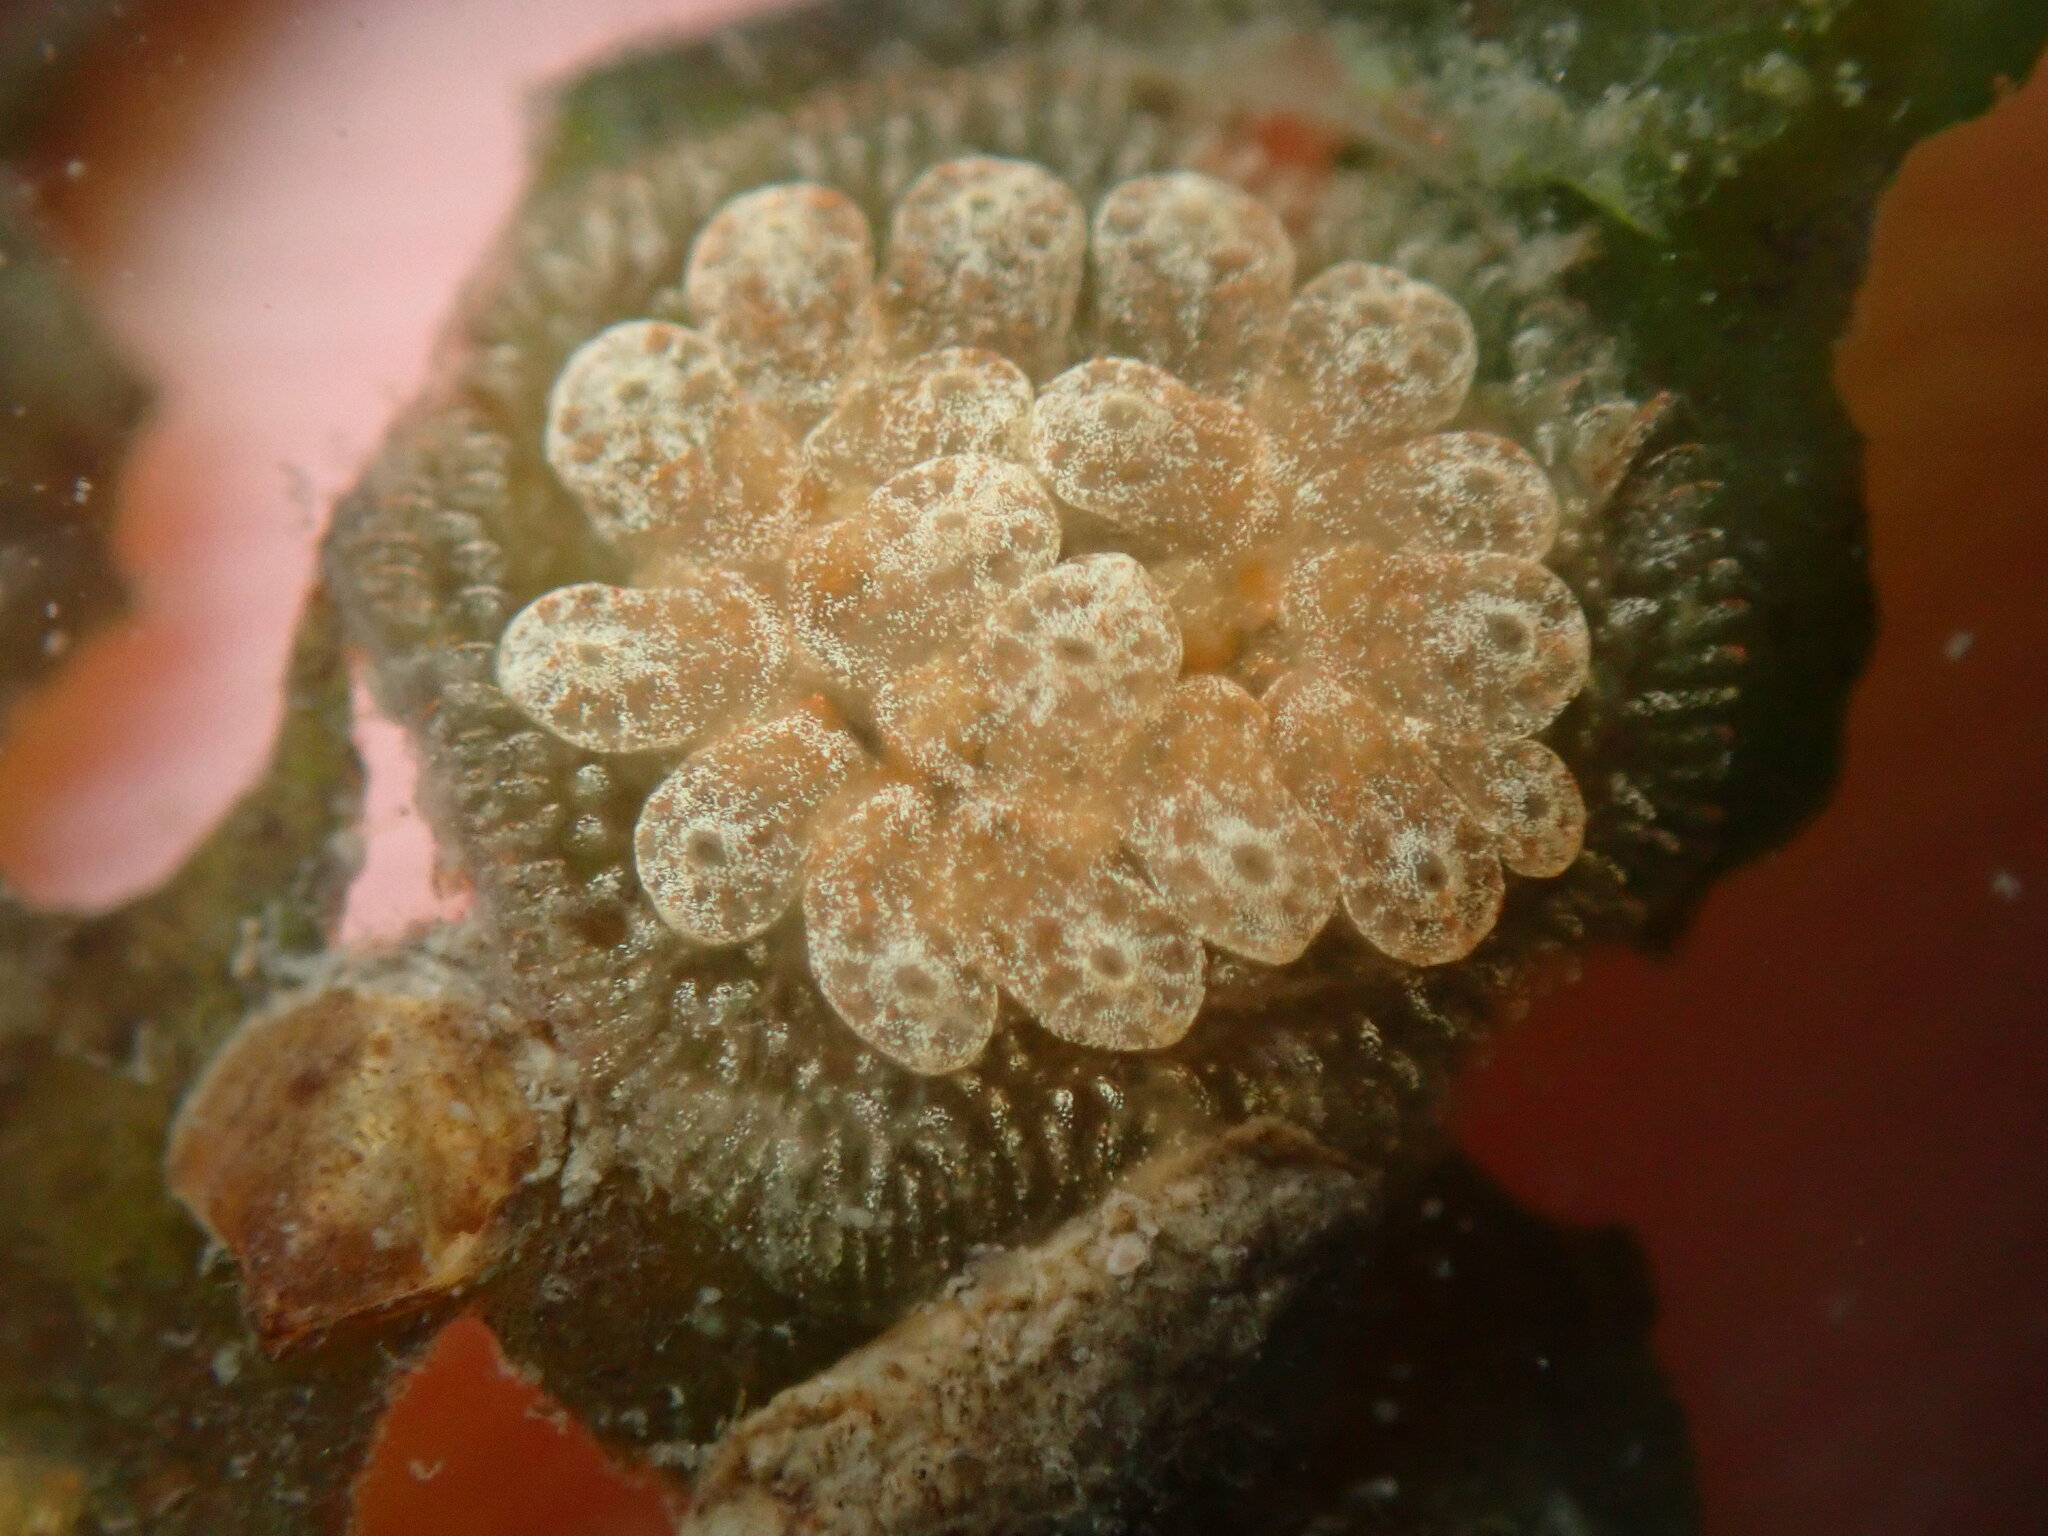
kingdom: Animalia
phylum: Chordata
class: Ascidiacea
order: Stolidobranchia
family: Styelidae
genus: Botryllus
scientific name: Botryllus schlosseri
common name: Golden star tunicate
